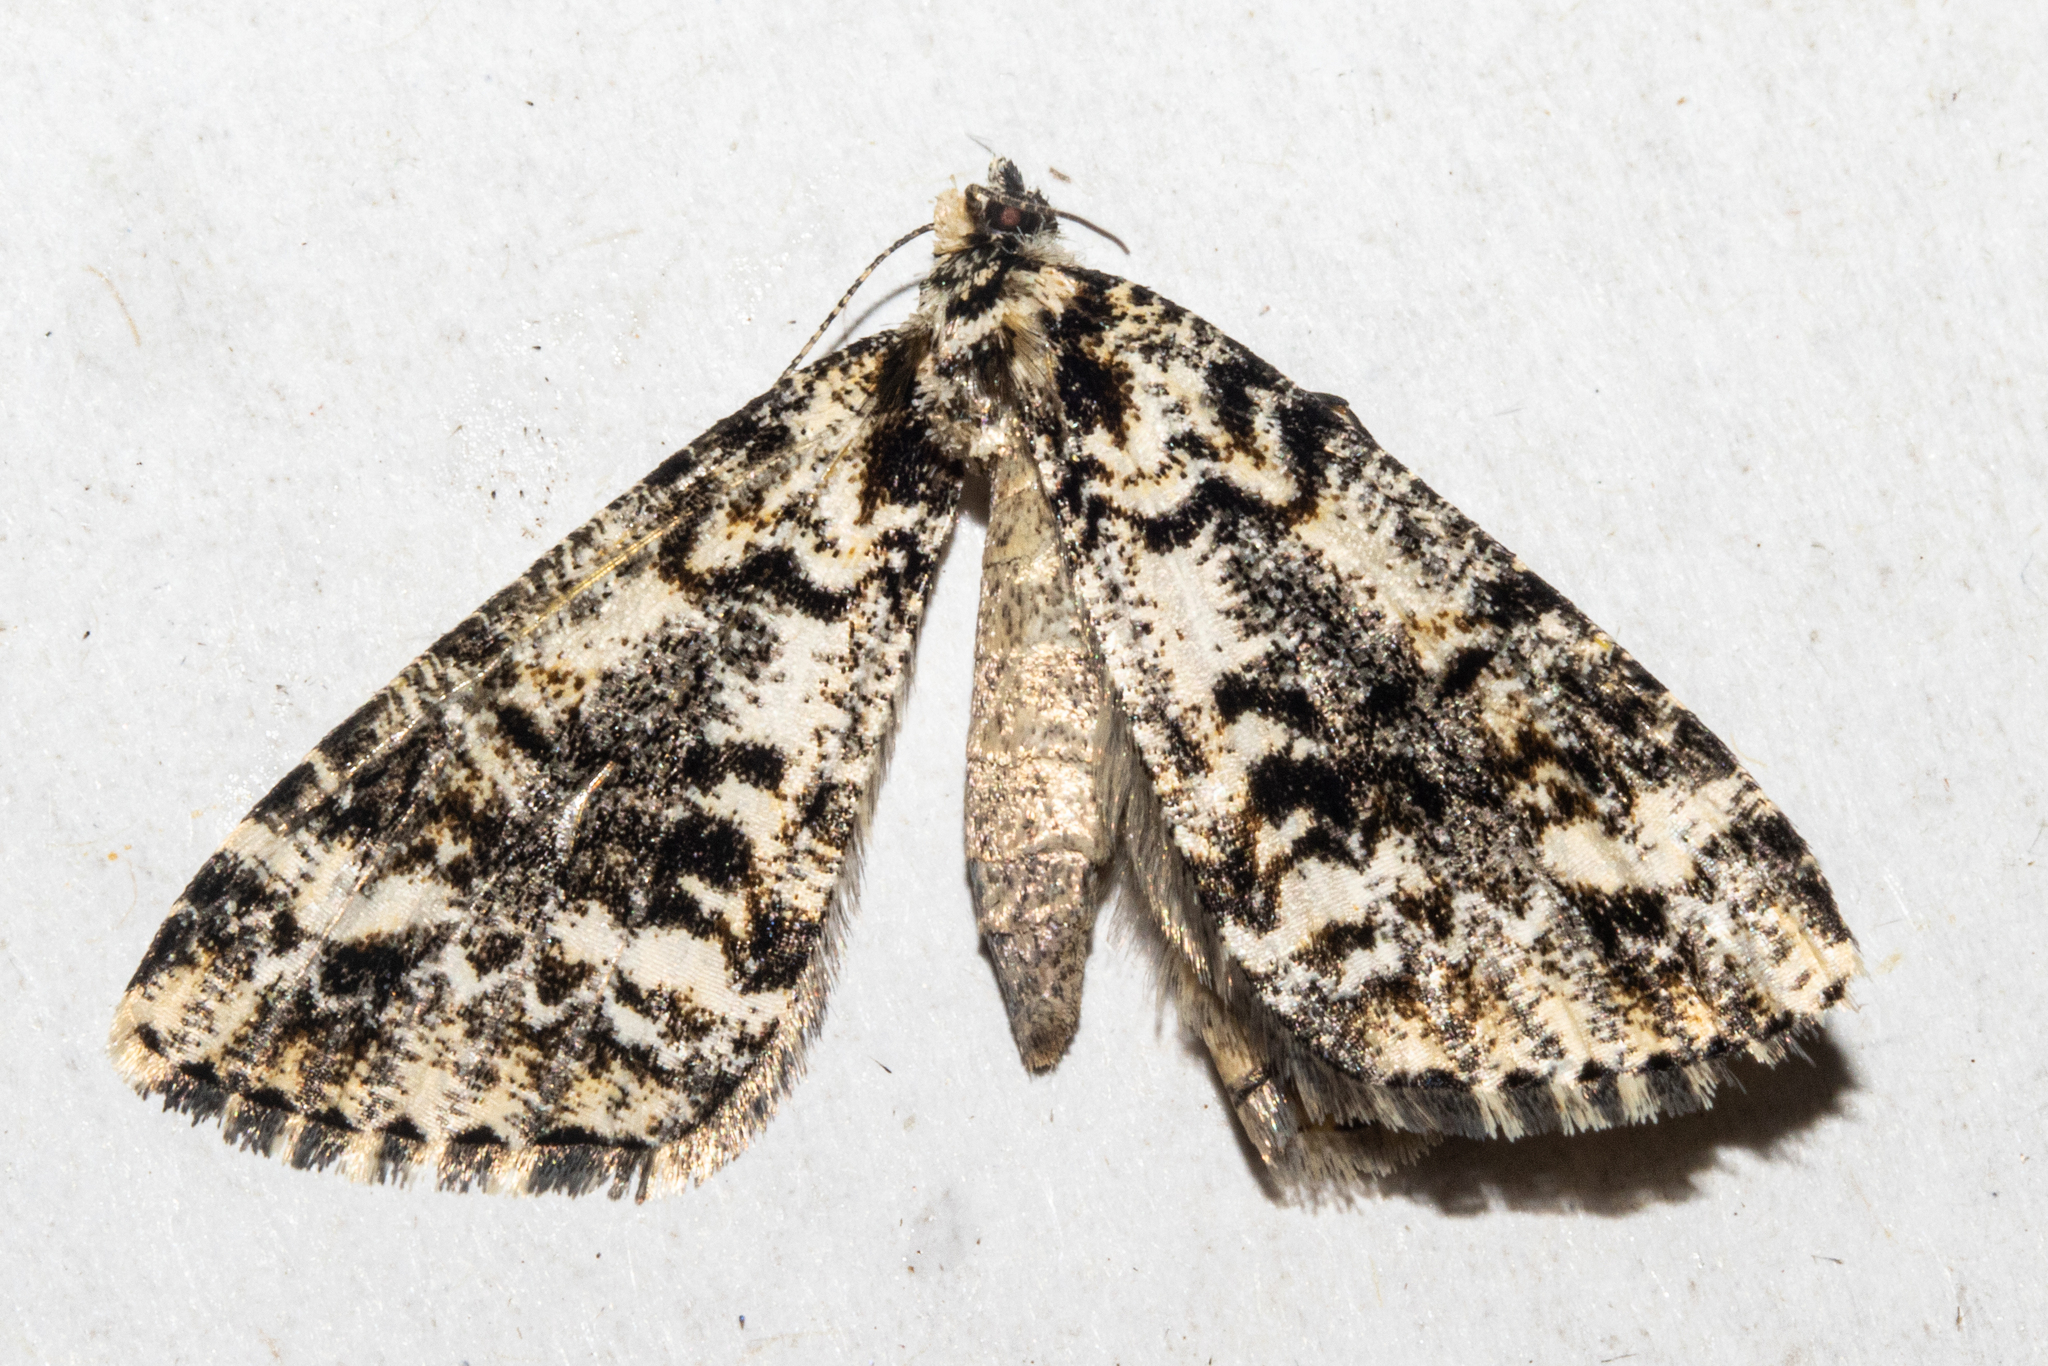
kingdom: Animalia
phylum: Arthropoda
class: Insecta
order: Lepidoptera
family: Geometridae
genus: Pseudocoremia
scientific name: Pseudocoremia leucelaea
